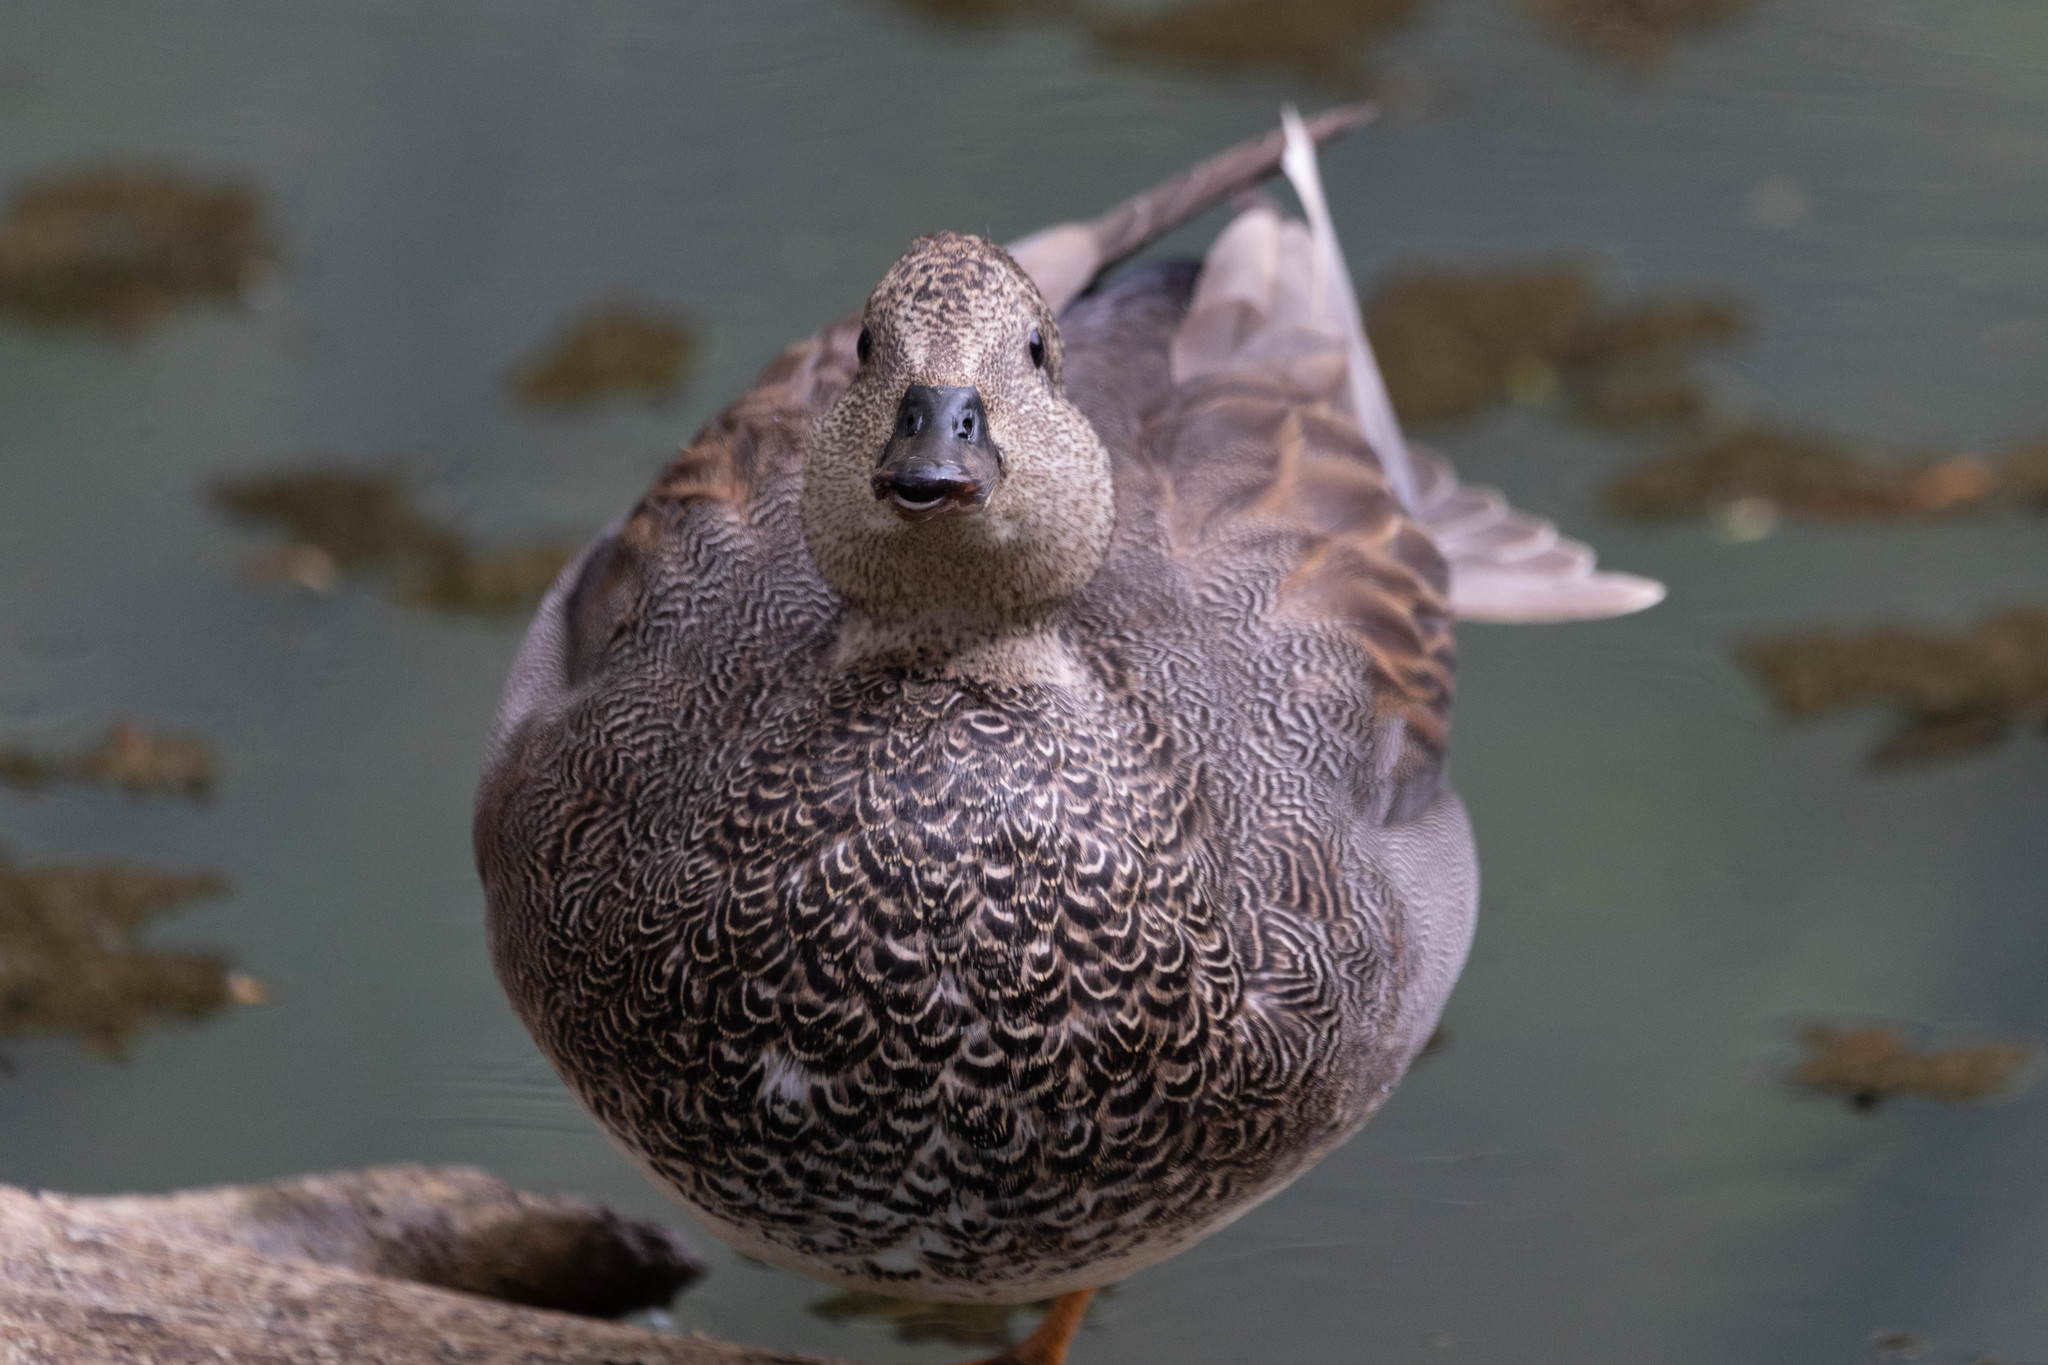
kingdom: Animalia
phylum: Chordata
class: Aves
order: Anseriformes
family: Anatidae
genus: Mareca
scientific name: Mareca strepera
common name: Gadwall
